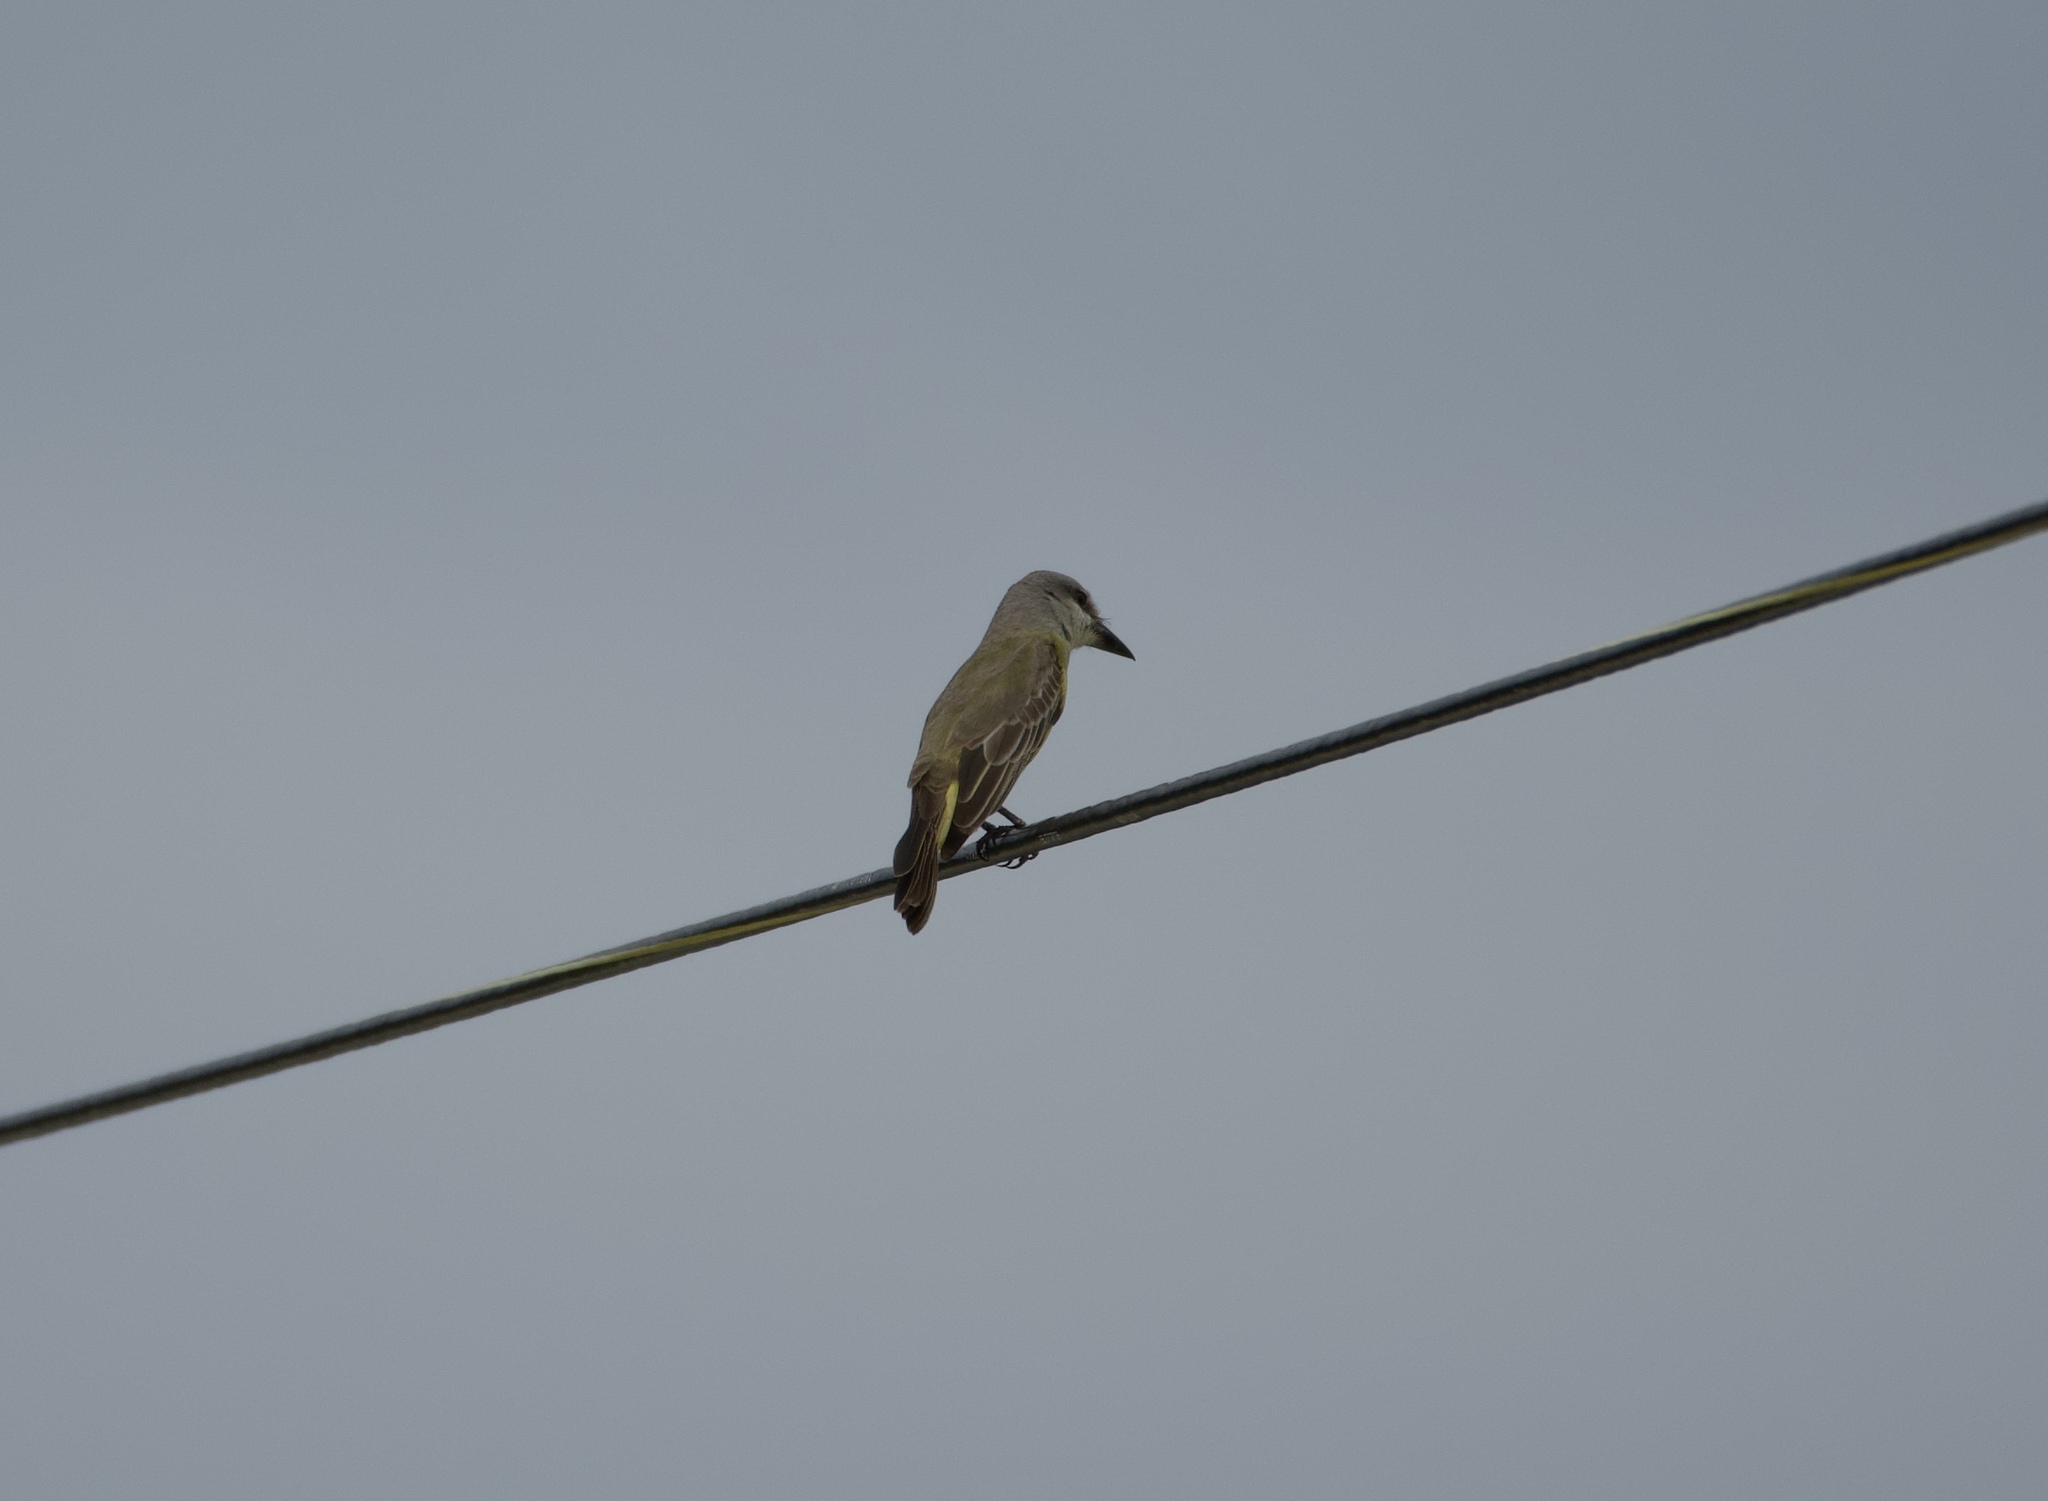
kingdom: Animalia
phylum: Chordata
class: Aves
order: Passeriformes
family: Tyrannidae
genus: Tyrannus
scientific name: Tyrannus melancholicus
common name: Tropical kingbird
